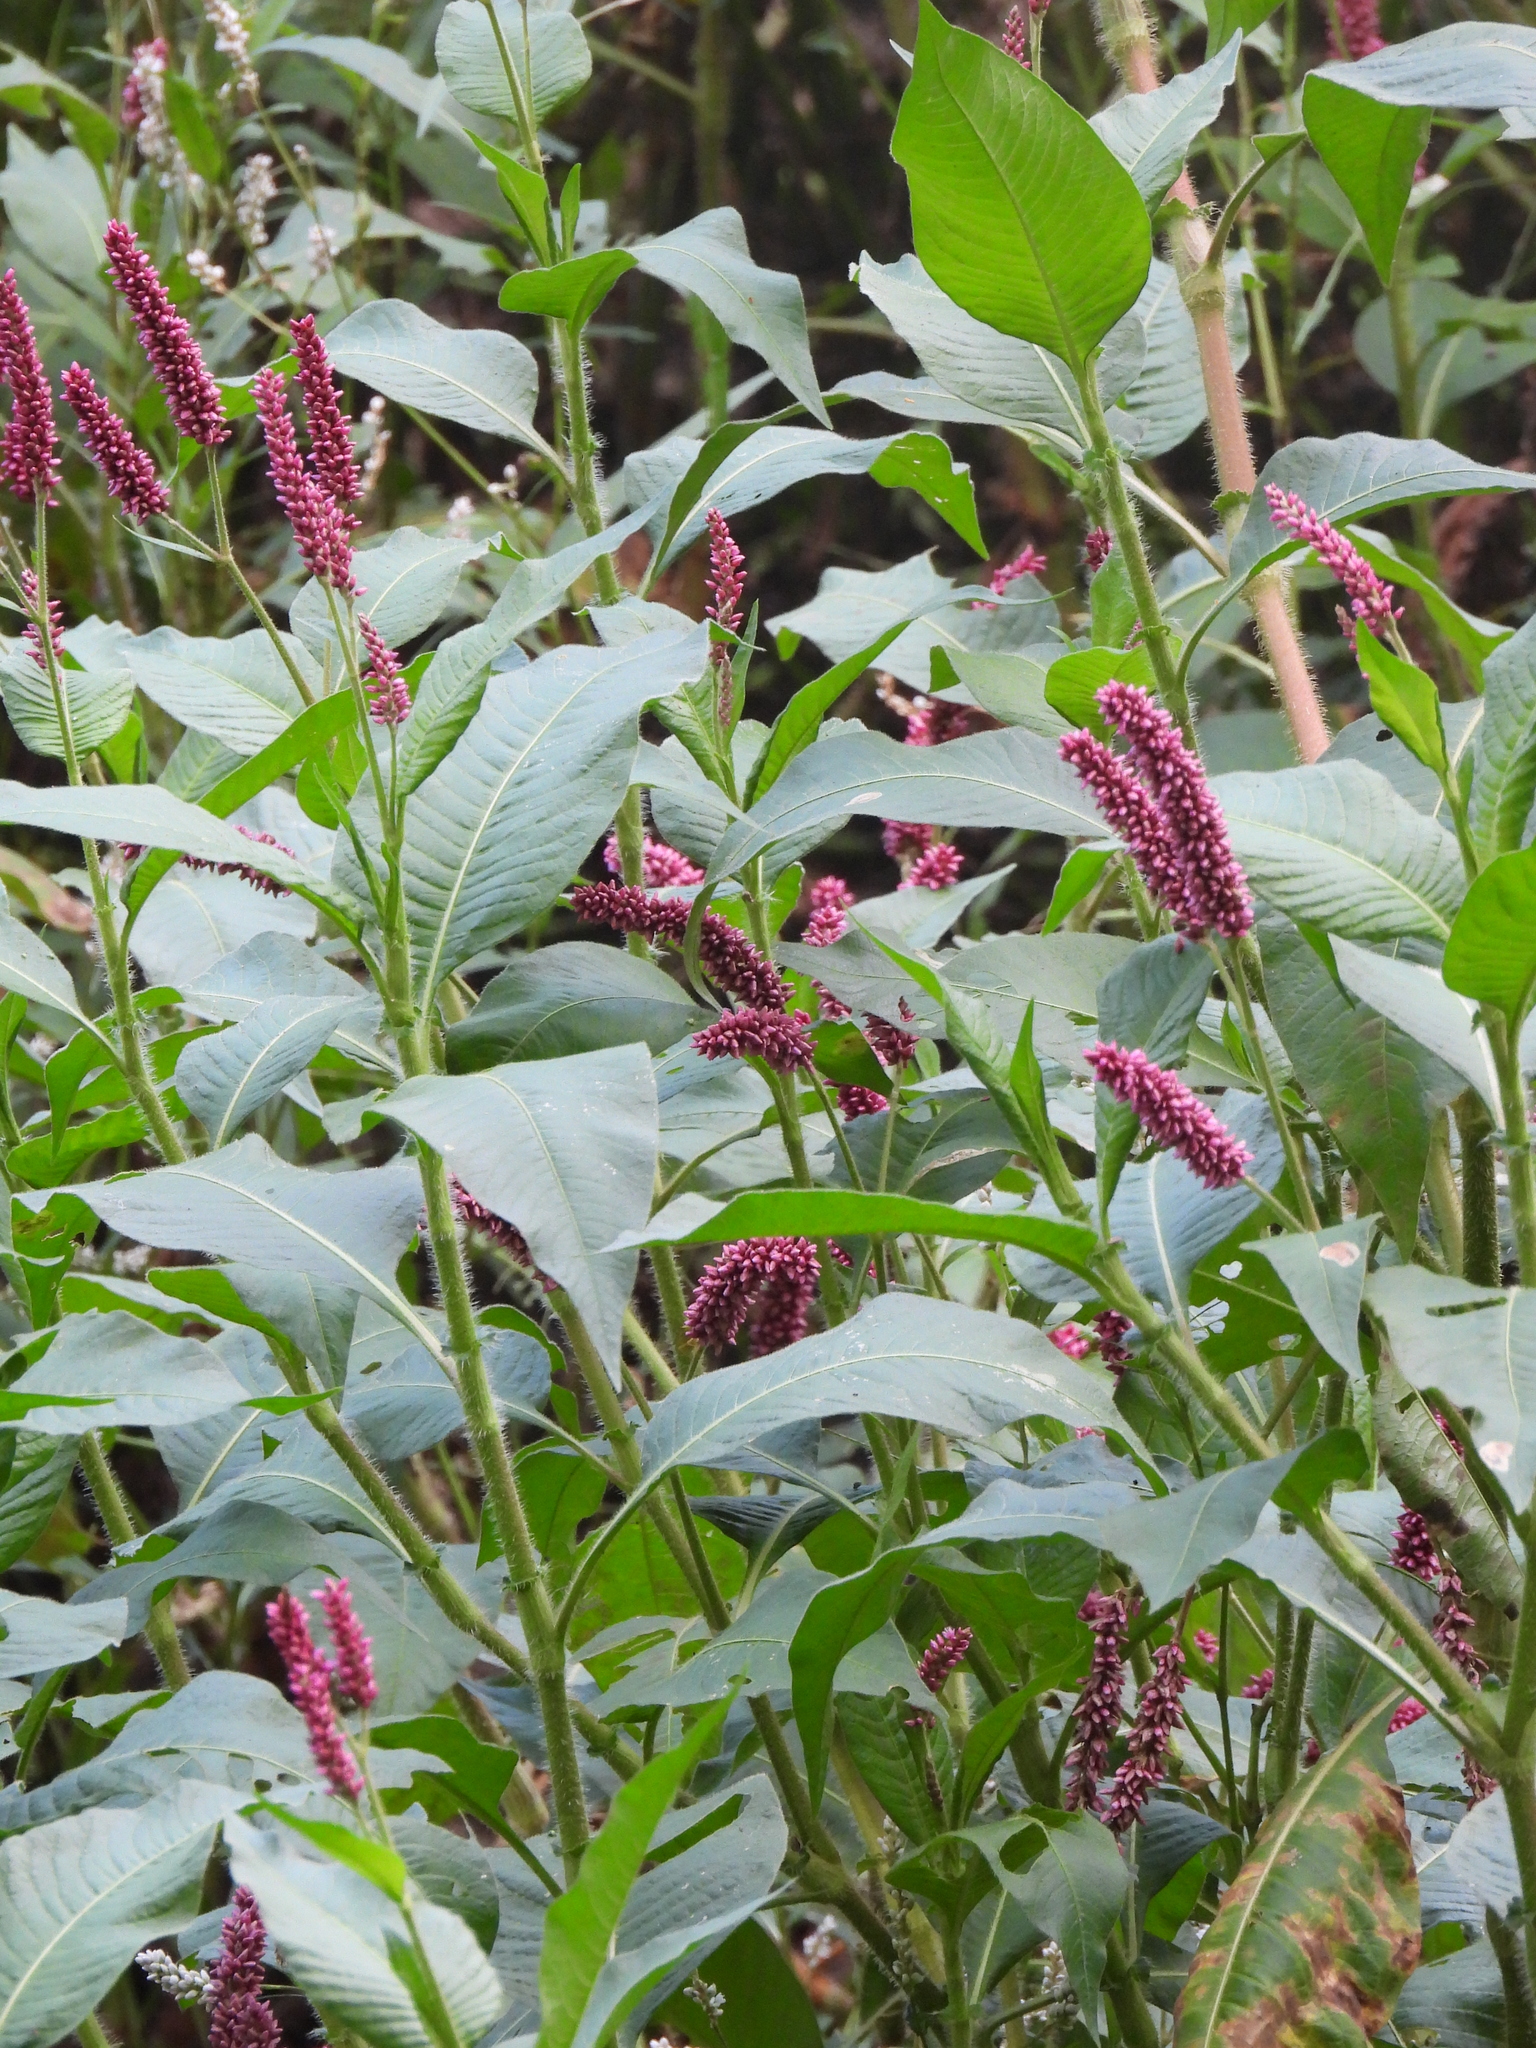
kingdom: Plantae
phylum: Tracheophyta
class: Magnoliopsida
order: Caryophyllales
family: Polygonaceae
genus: Persicaria
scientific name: Persicaria hispida
